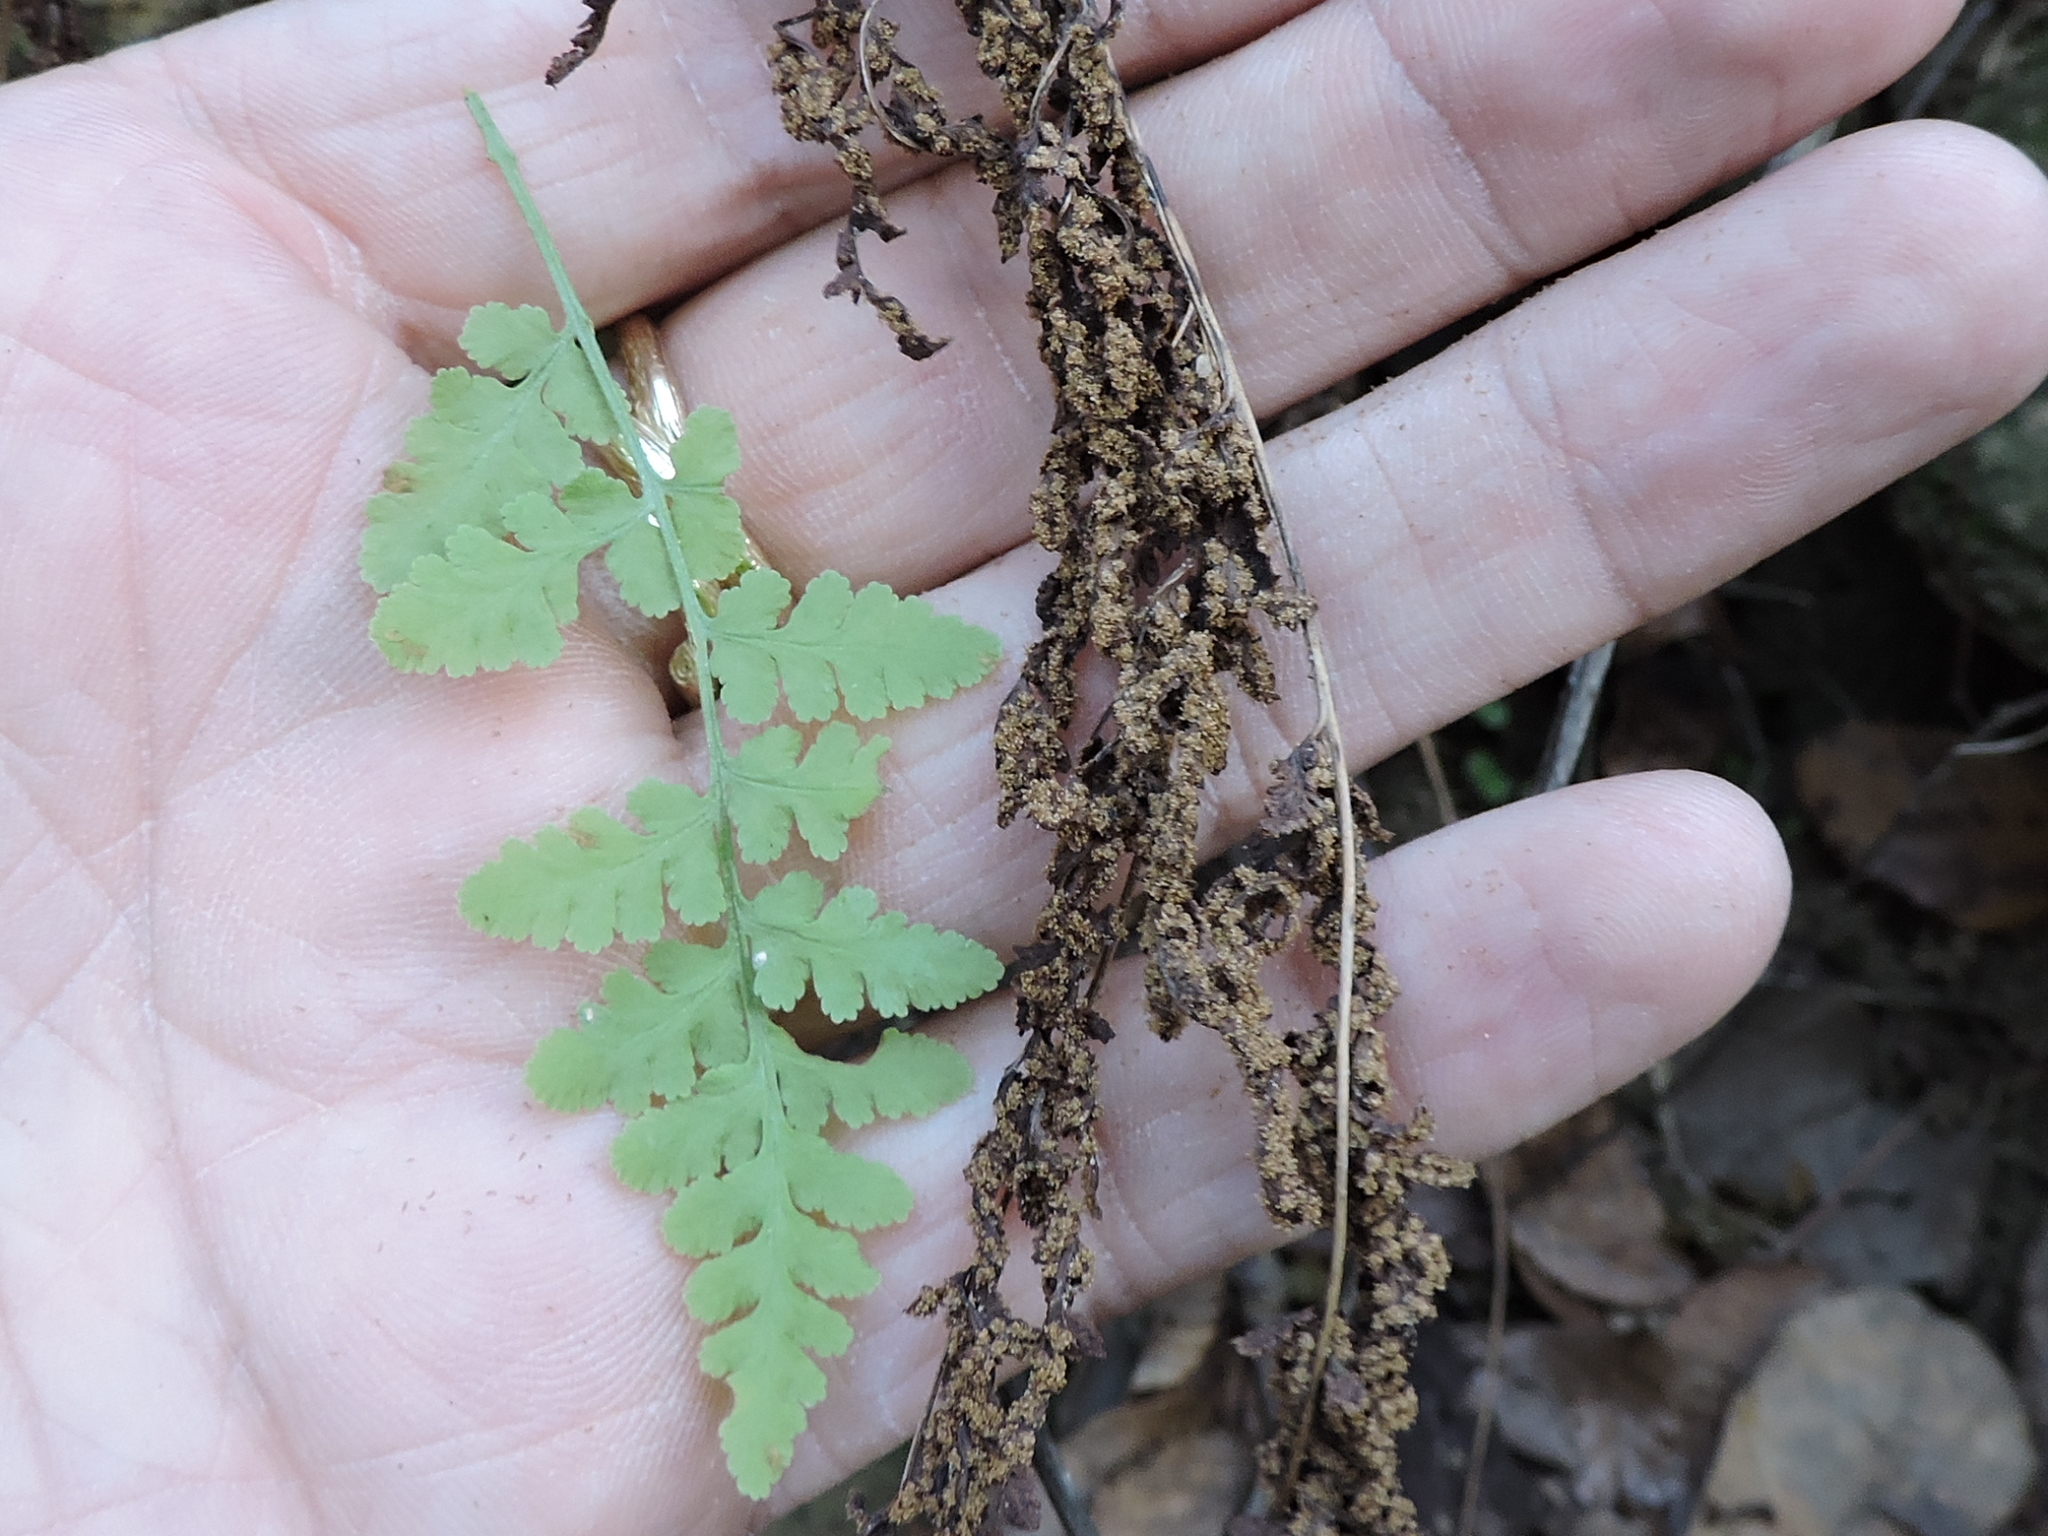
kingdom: Plantae
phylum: Tracheophyta
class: Polypodiopsida
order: Polypodiales
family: Woodsiaceae
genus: Physematium
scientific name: Physematium obtusum
